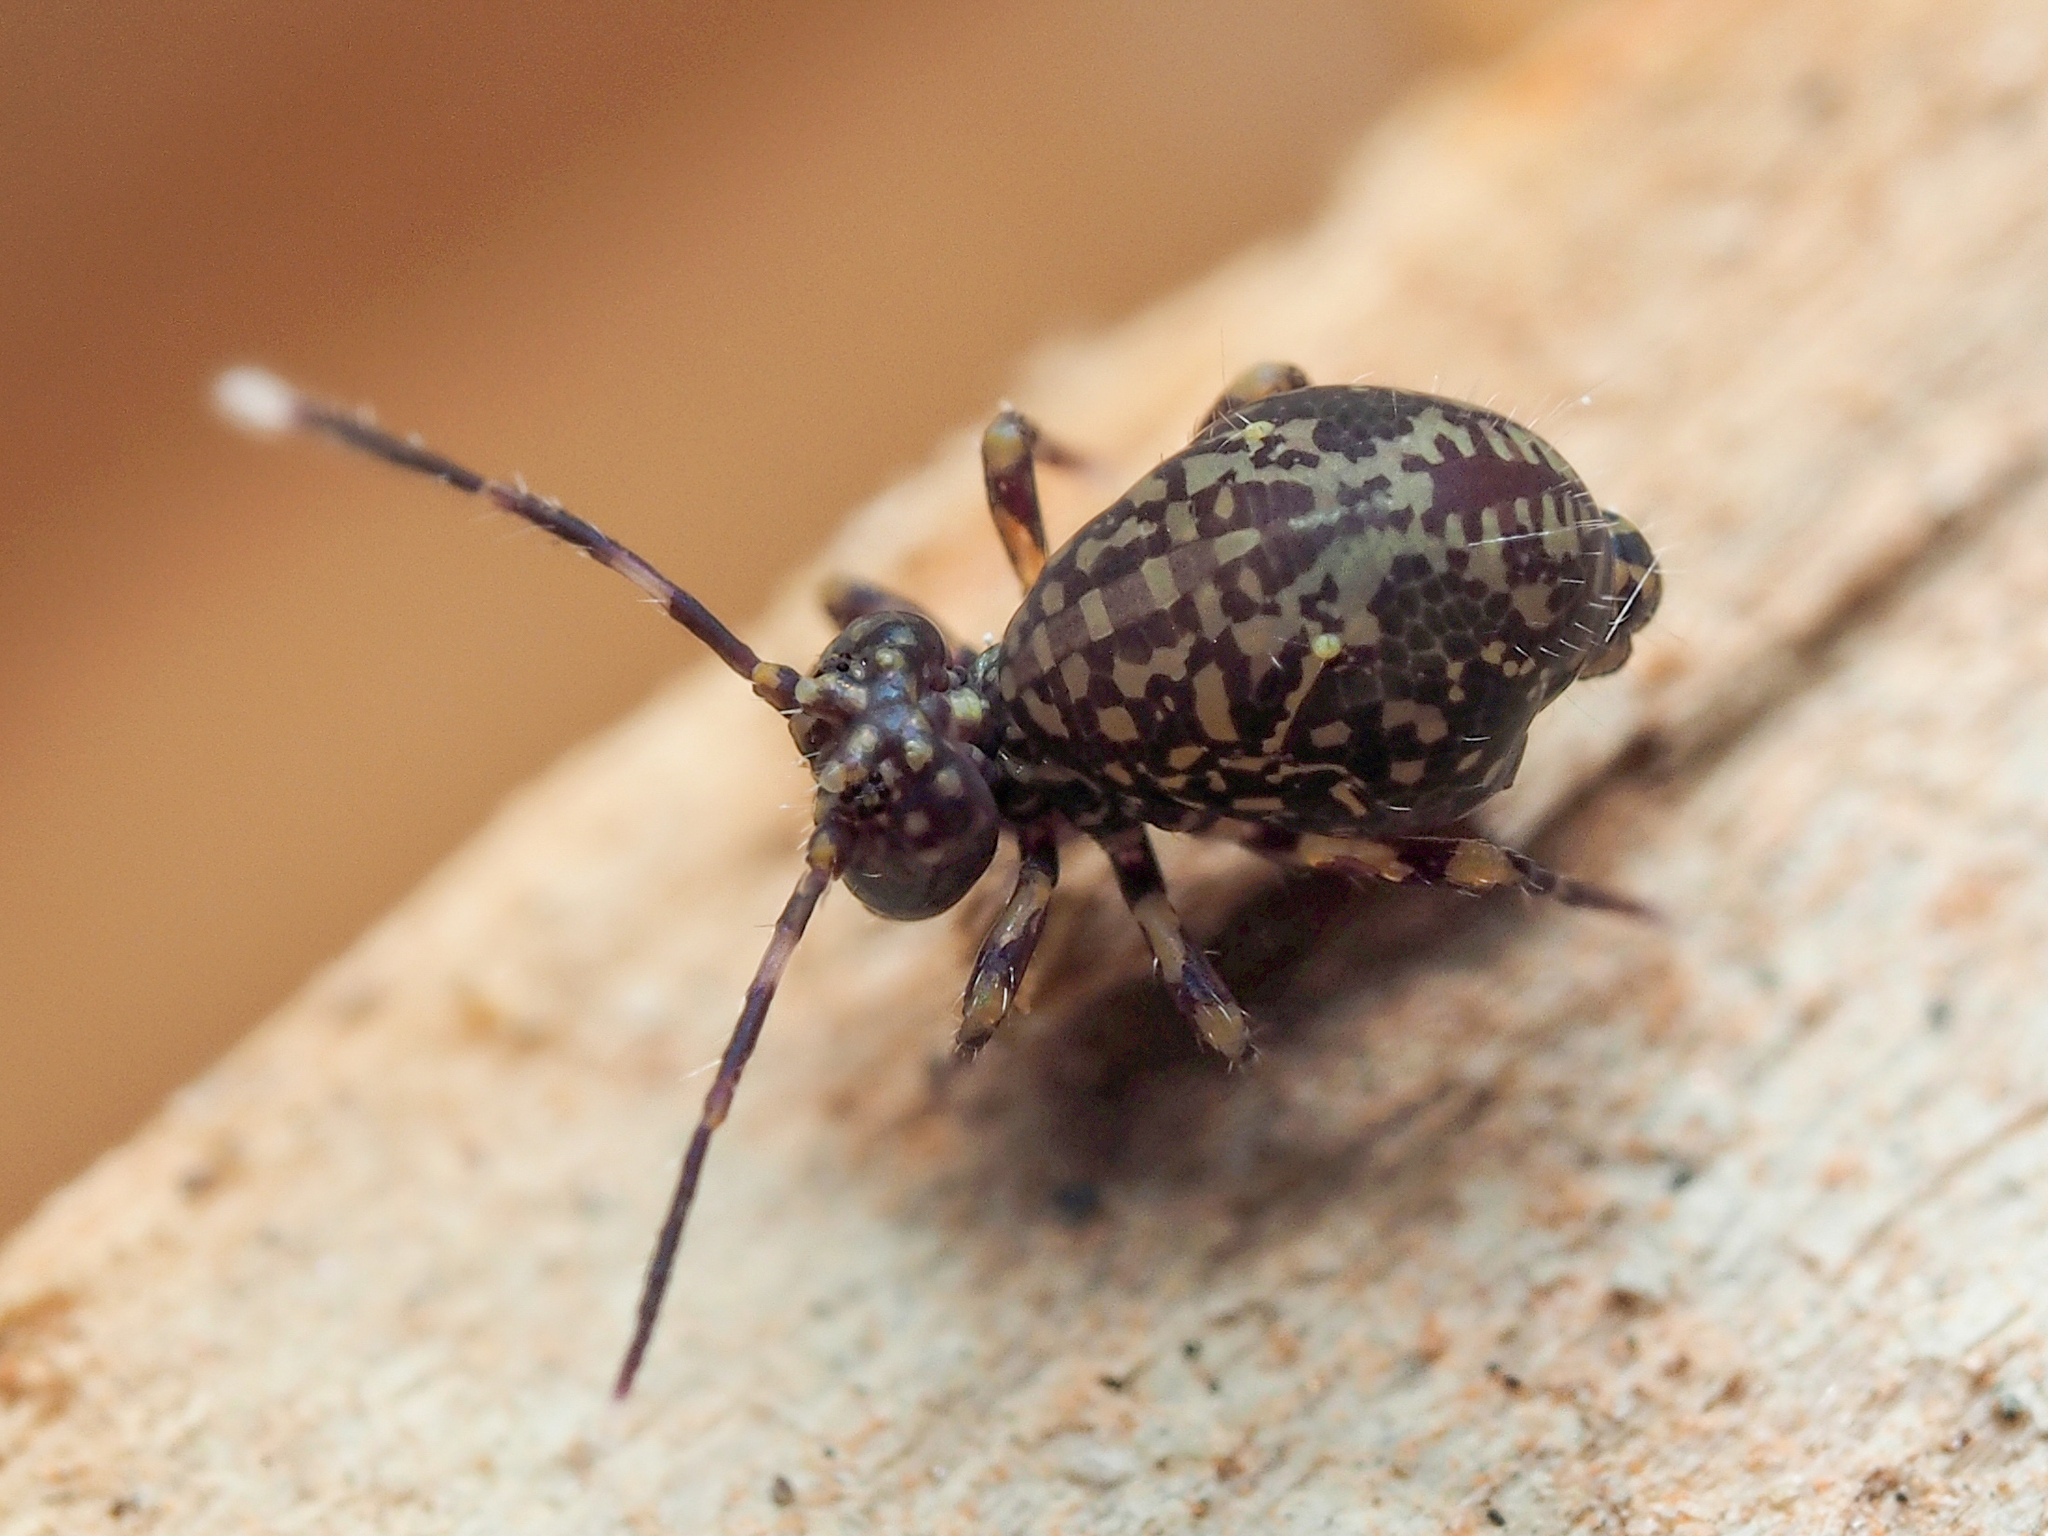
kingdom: Animalia
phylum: Arthropoda
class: Collembola
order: Symphypleona
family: Dicyrtomidae
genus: Ptenothrix
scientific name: Ptenothrix alveola
